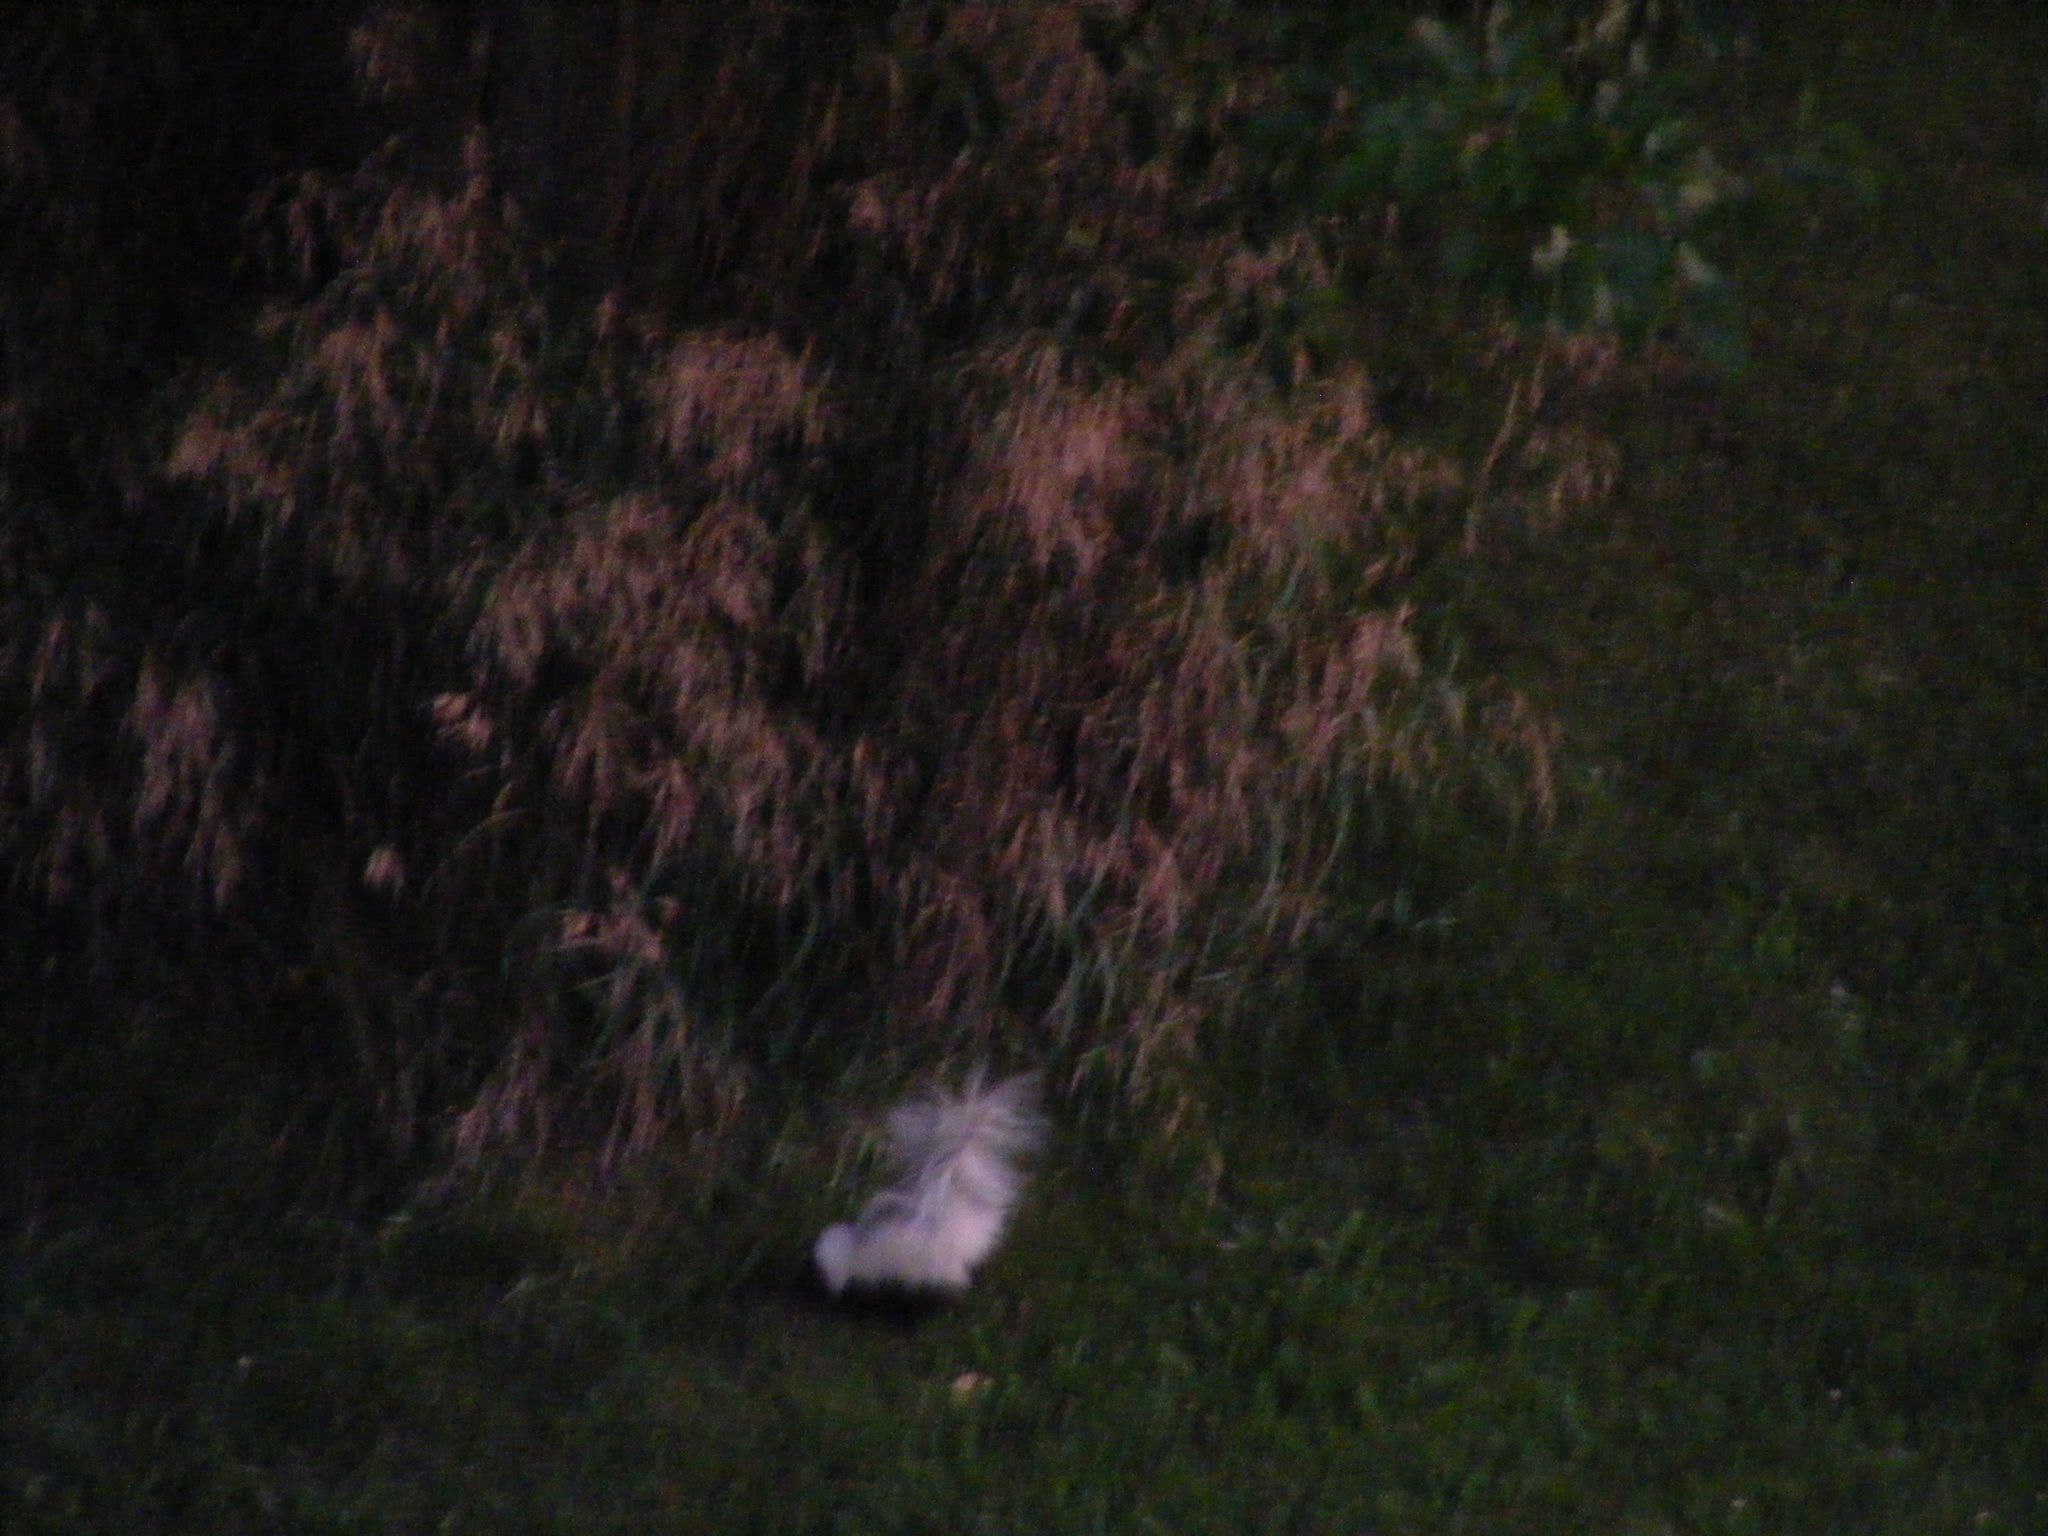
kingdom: Animalia
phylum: Chordata
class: Mammalia
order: Carnivora
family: Mephitidae
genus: Mephitis
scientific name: Mephitis mephitis
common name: Striped skunk
